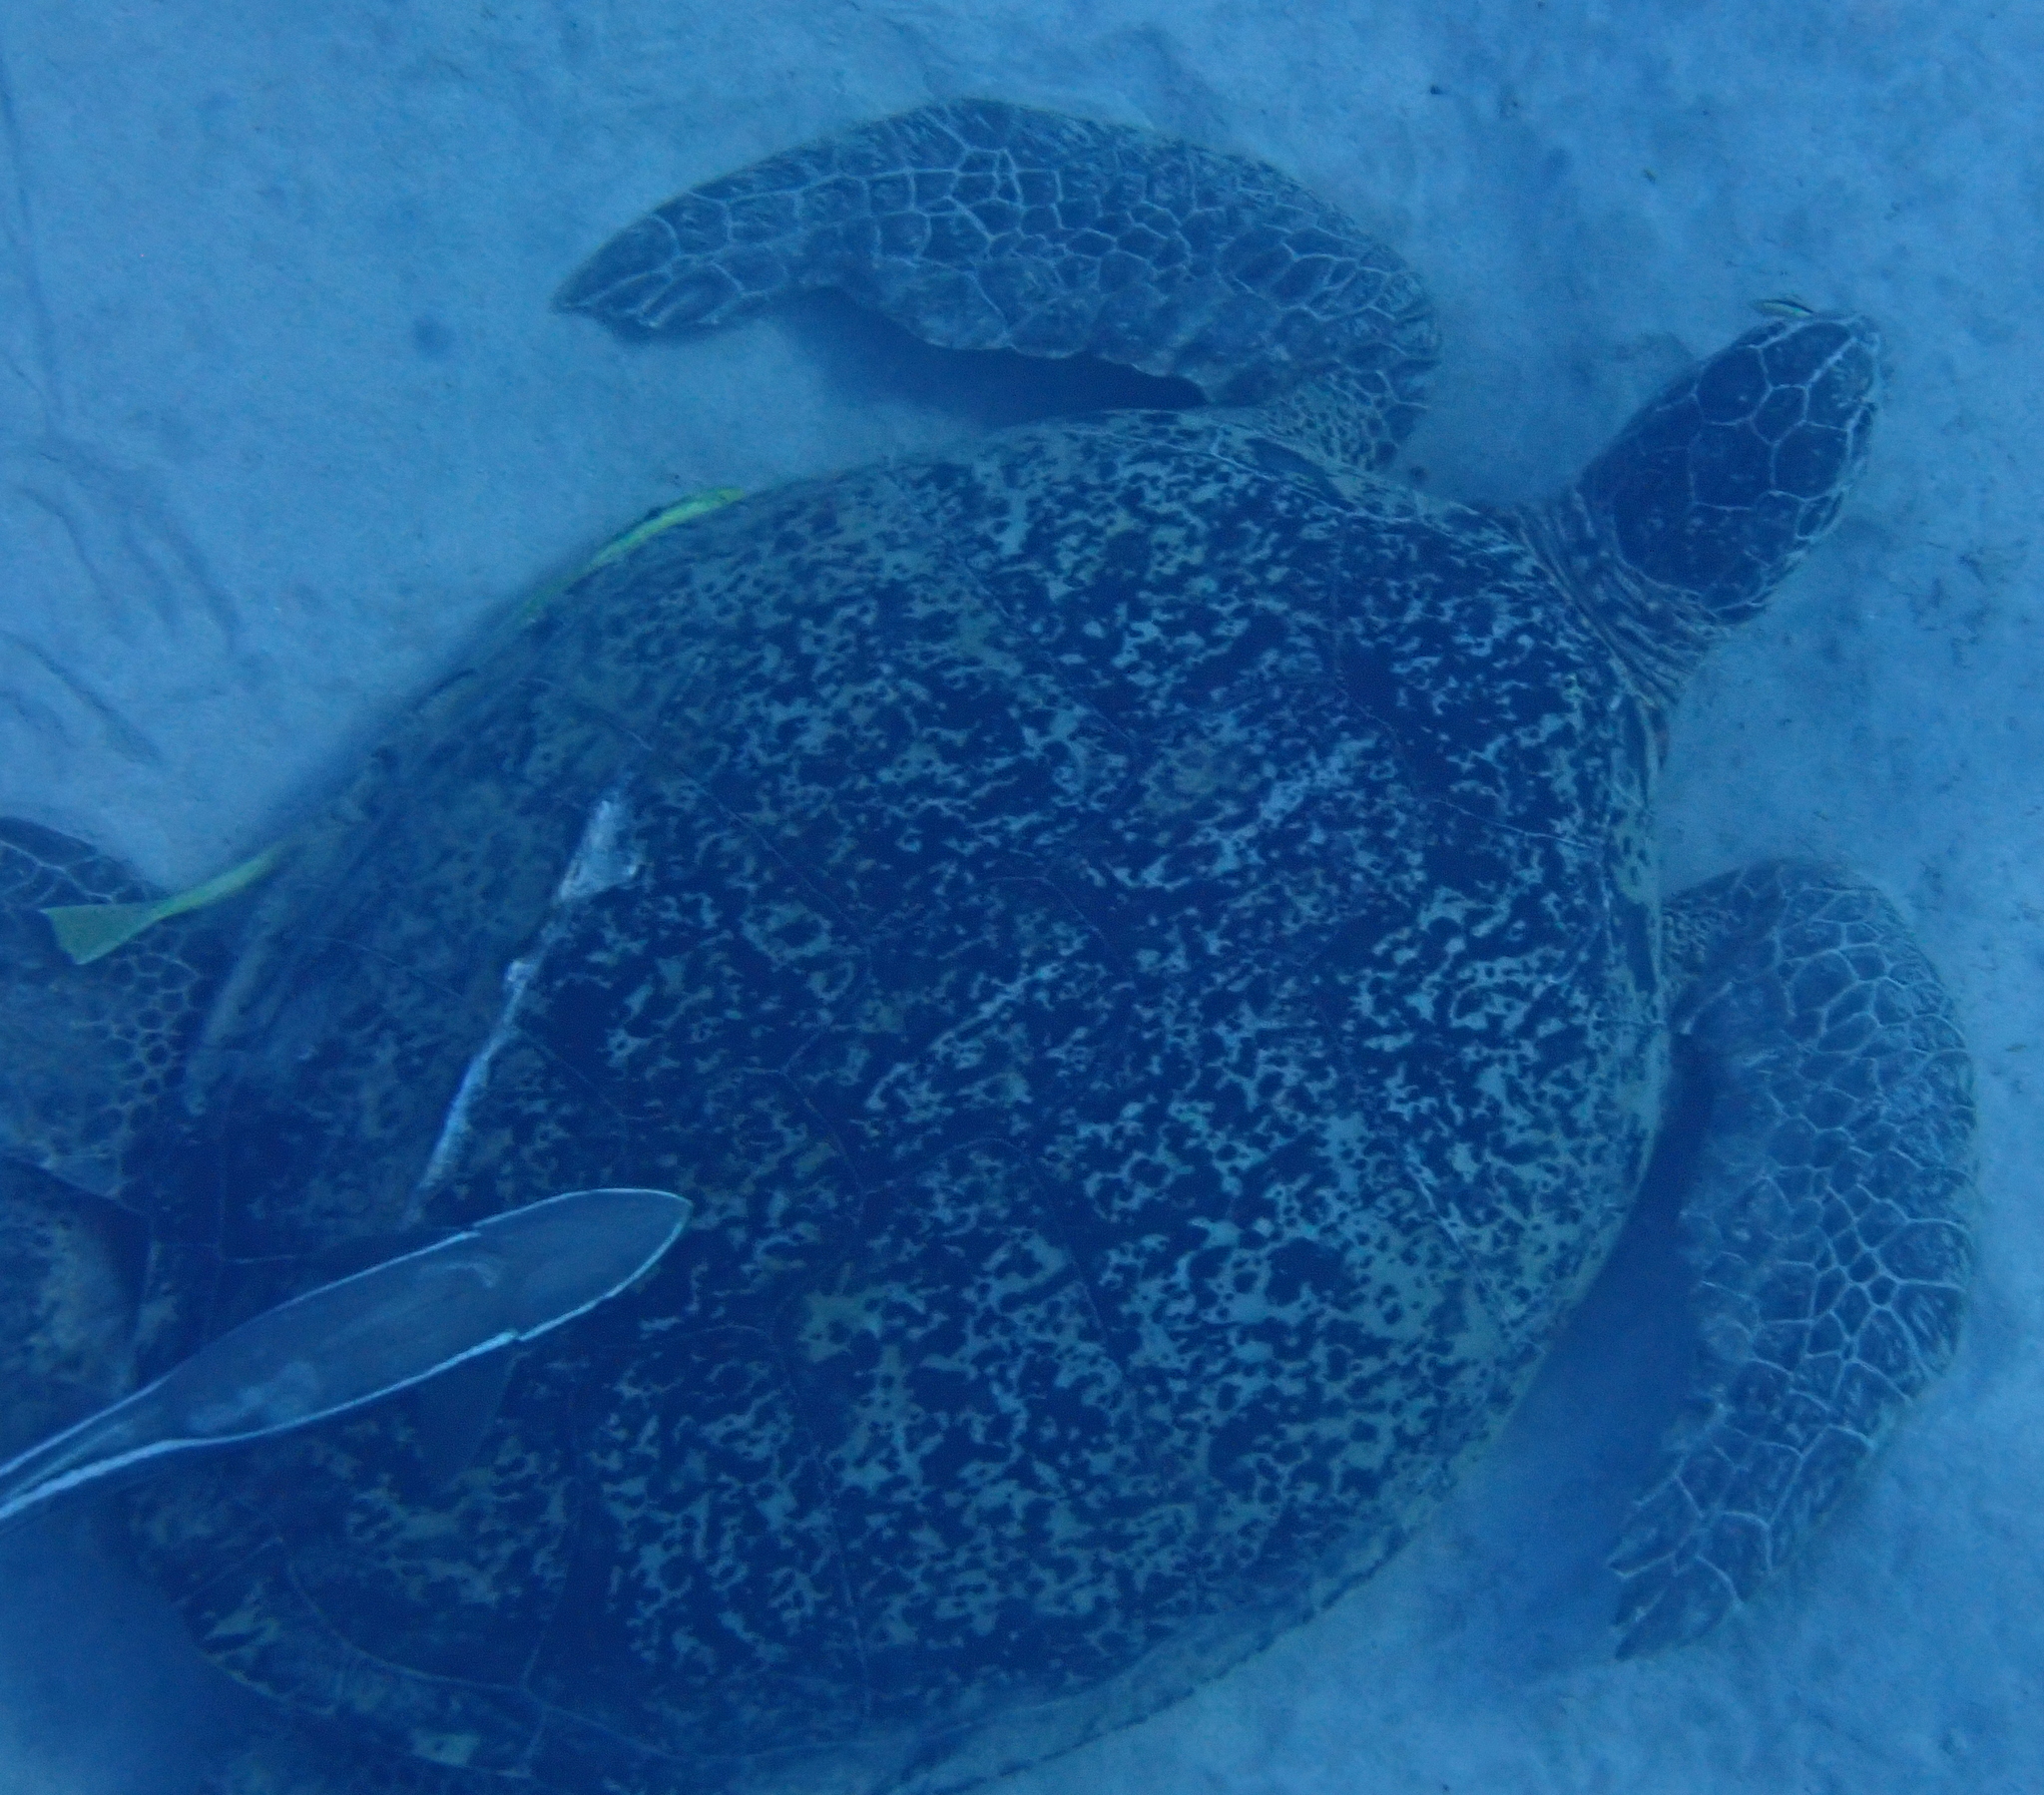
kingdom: Animalia
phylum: Chordata
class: Testudines
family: Cheloniidae
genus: Chelonia
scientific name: Chelonia mydas
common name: Green turtle
